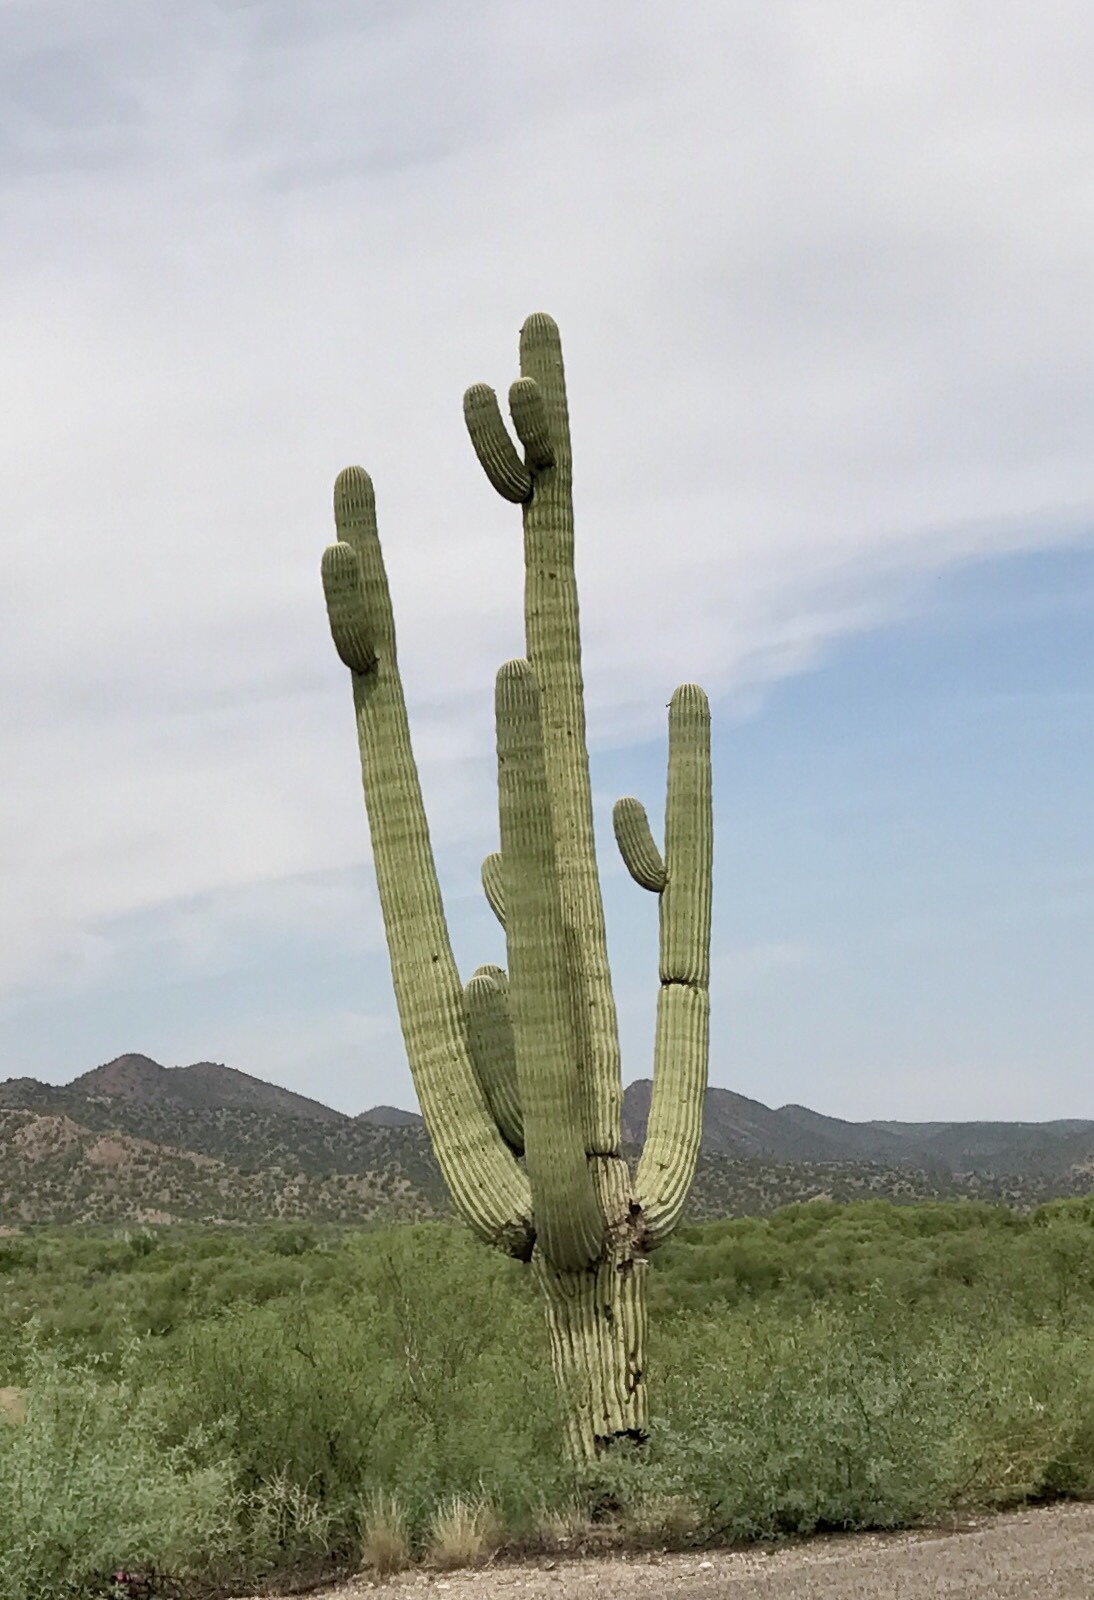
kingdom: Plantae
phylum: Tracheophyta
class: Magnoliopsida
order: Caryophyllales
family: Cactaceae
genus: Carnegiea
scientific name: Carnegiea gigantea
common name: Saguaro
